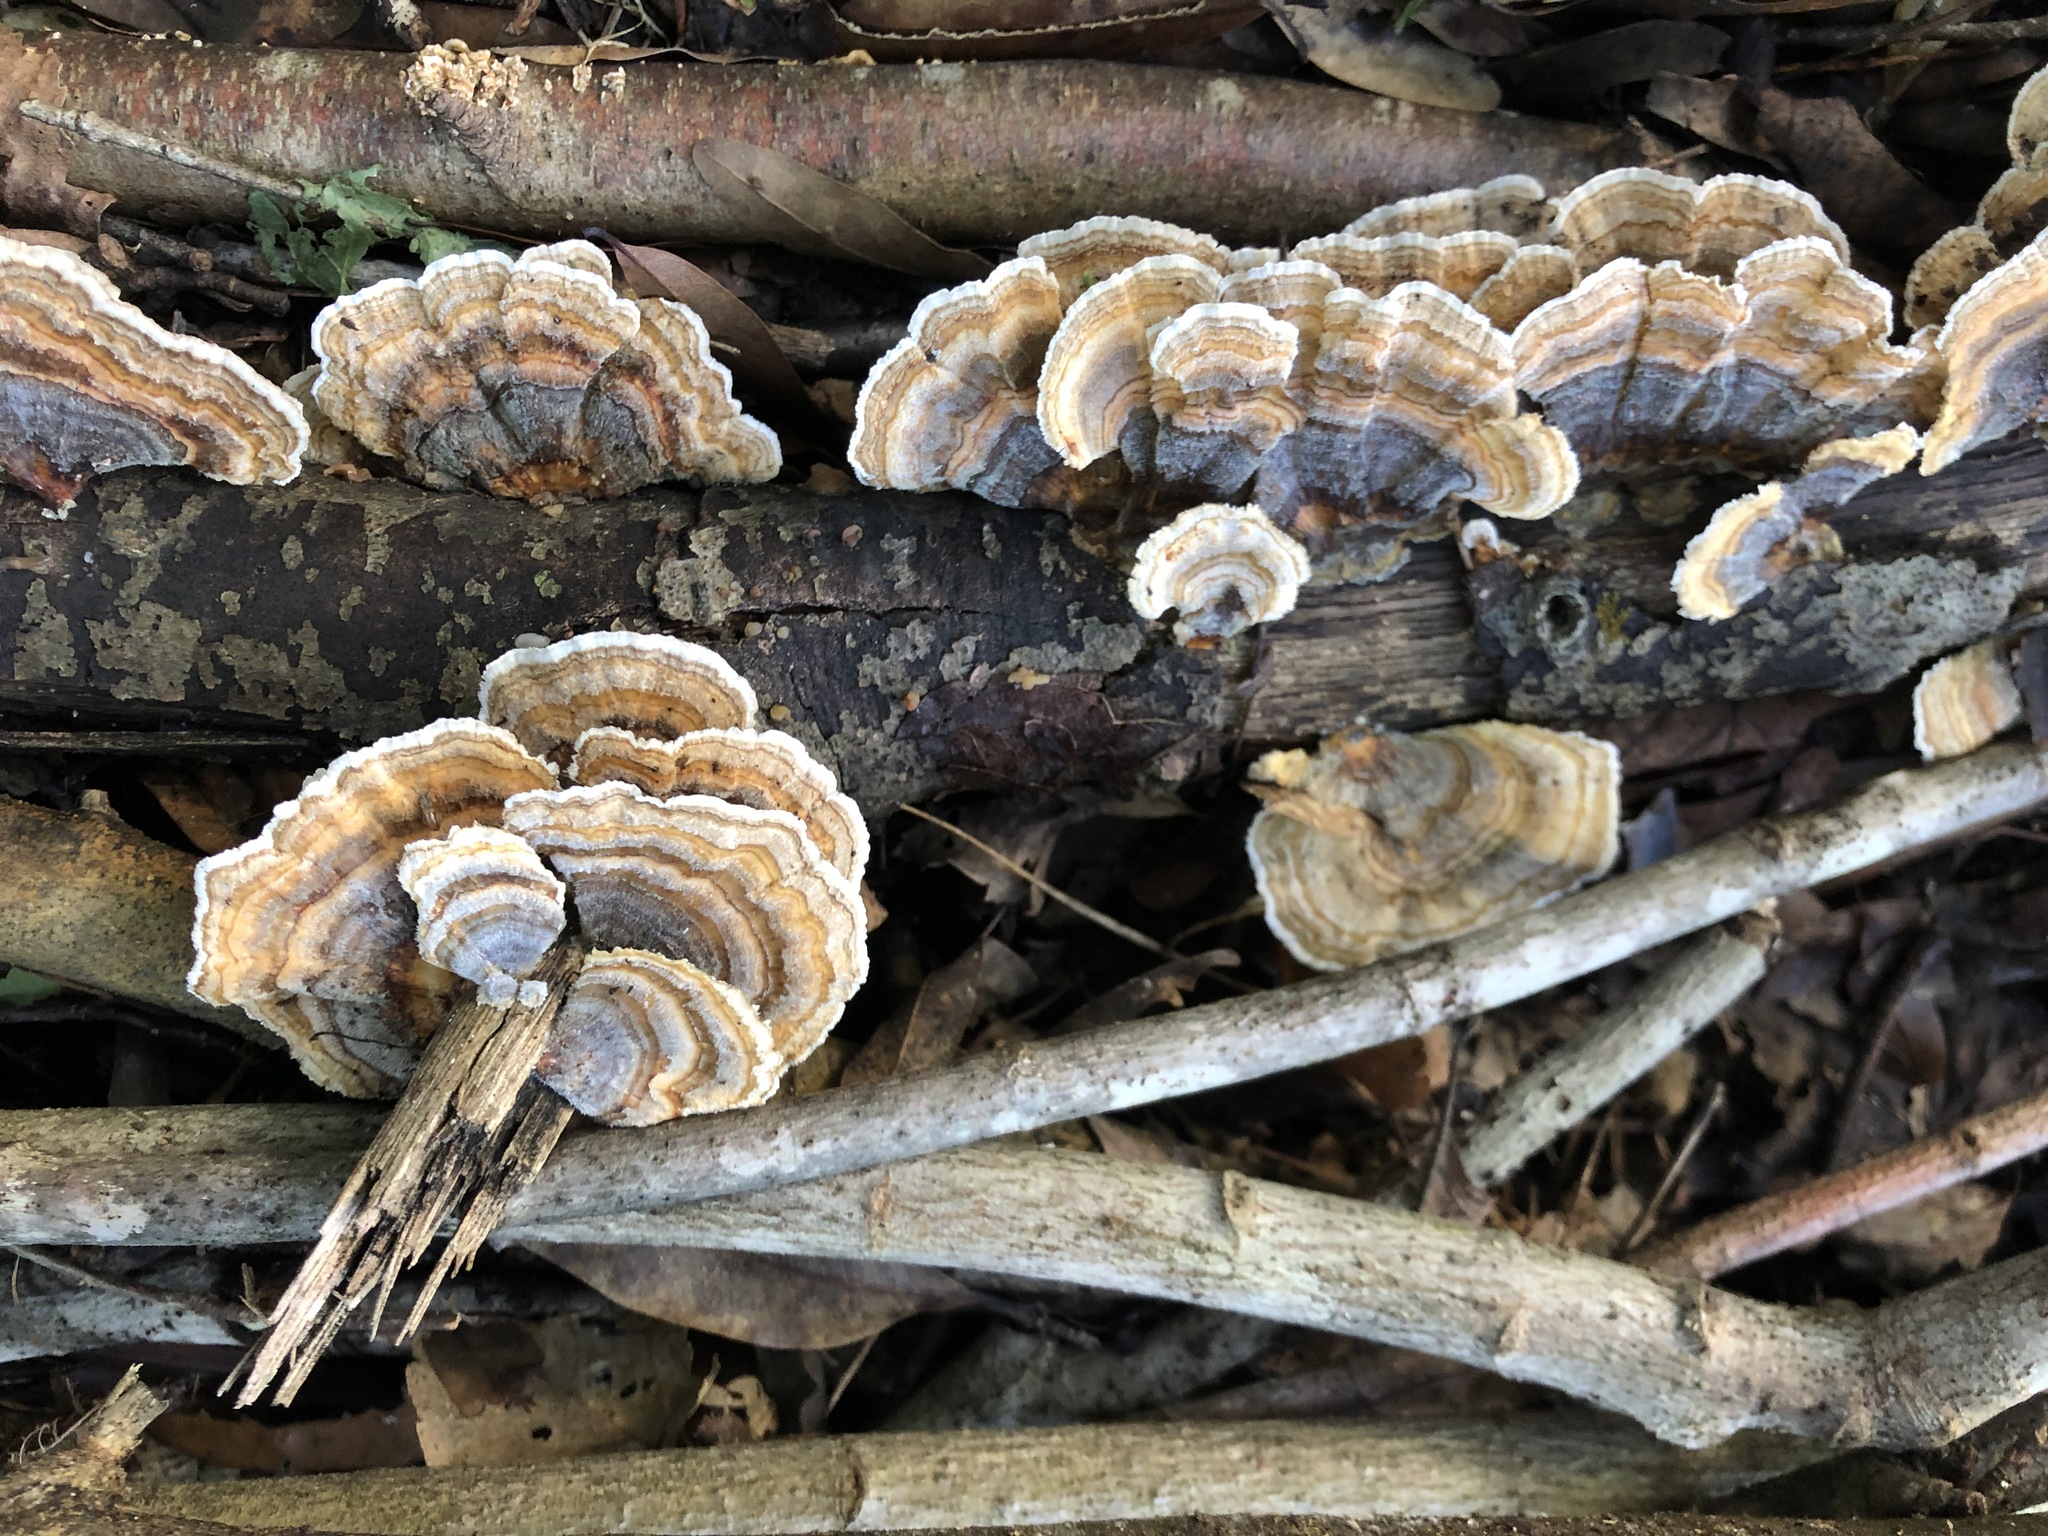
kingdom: Fungi
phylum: Basidiomycota
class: Agaricomycetes
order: Polyporales
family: Polyporaceae
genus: Trametes
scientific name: Trametes versicolor
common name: Turkeytail
